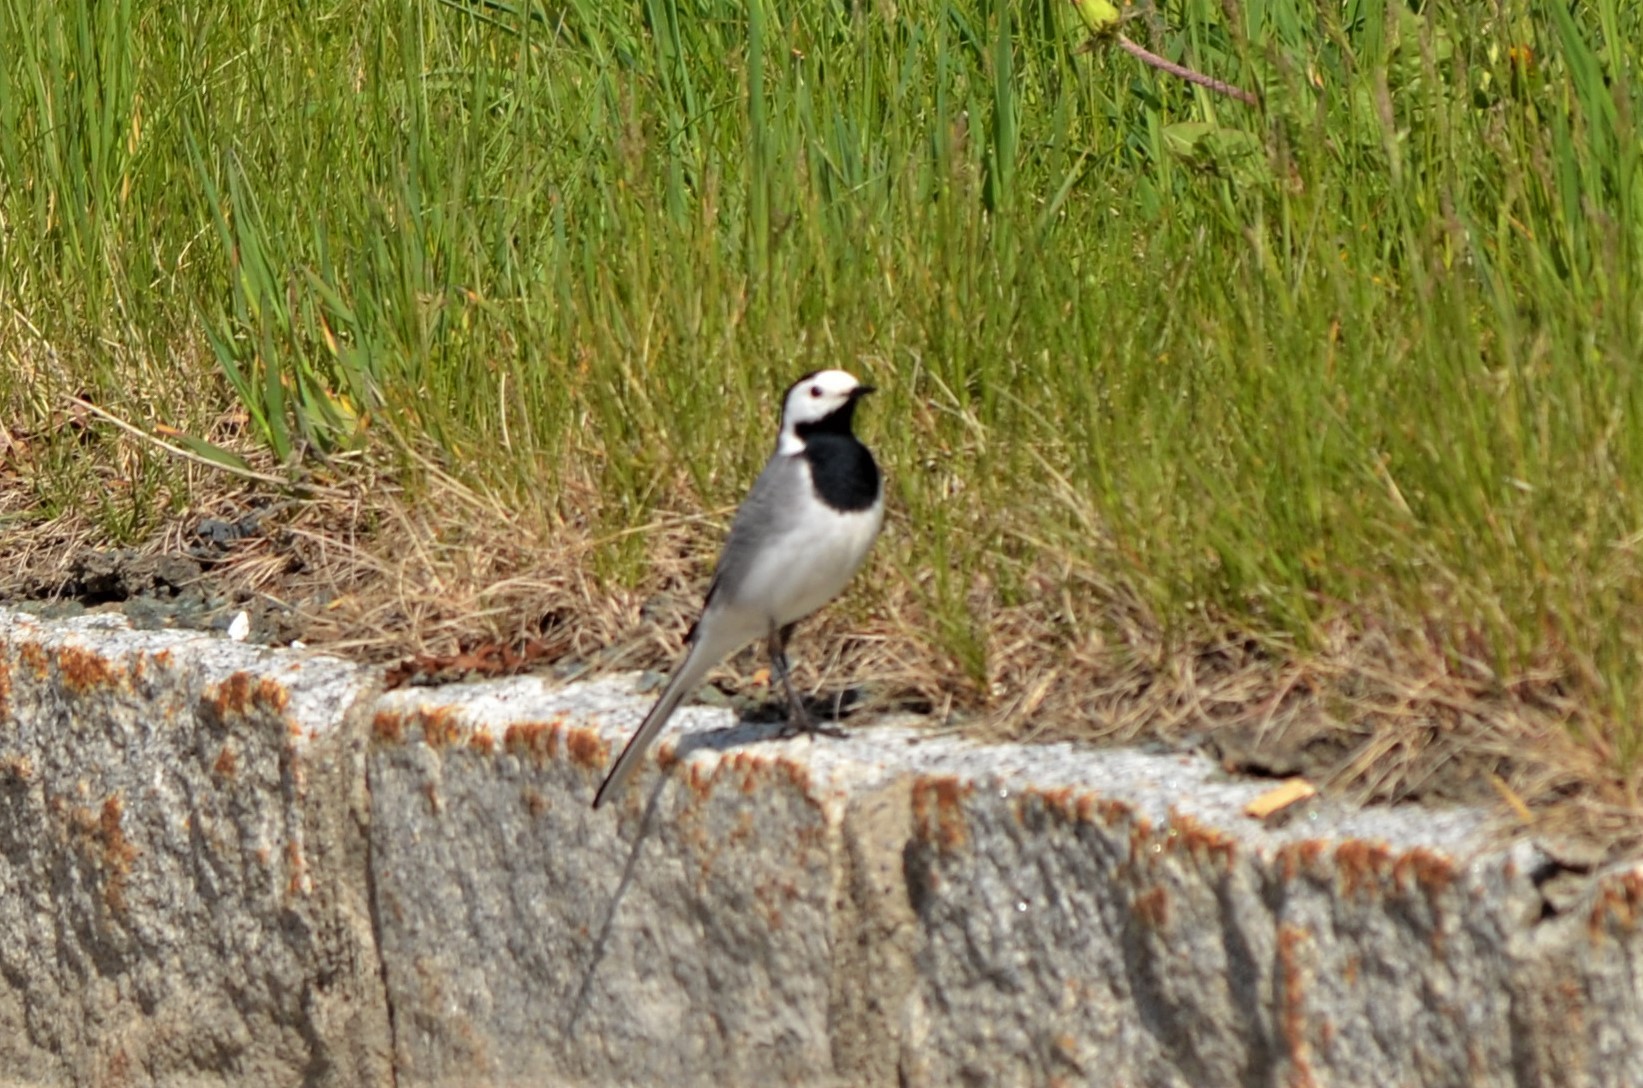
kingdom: Animalia
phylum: Chordata
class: Aves
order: Passeriformes
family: Motacillidae
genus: Motacilla
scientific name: Motacilla alba
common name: White wagtail
